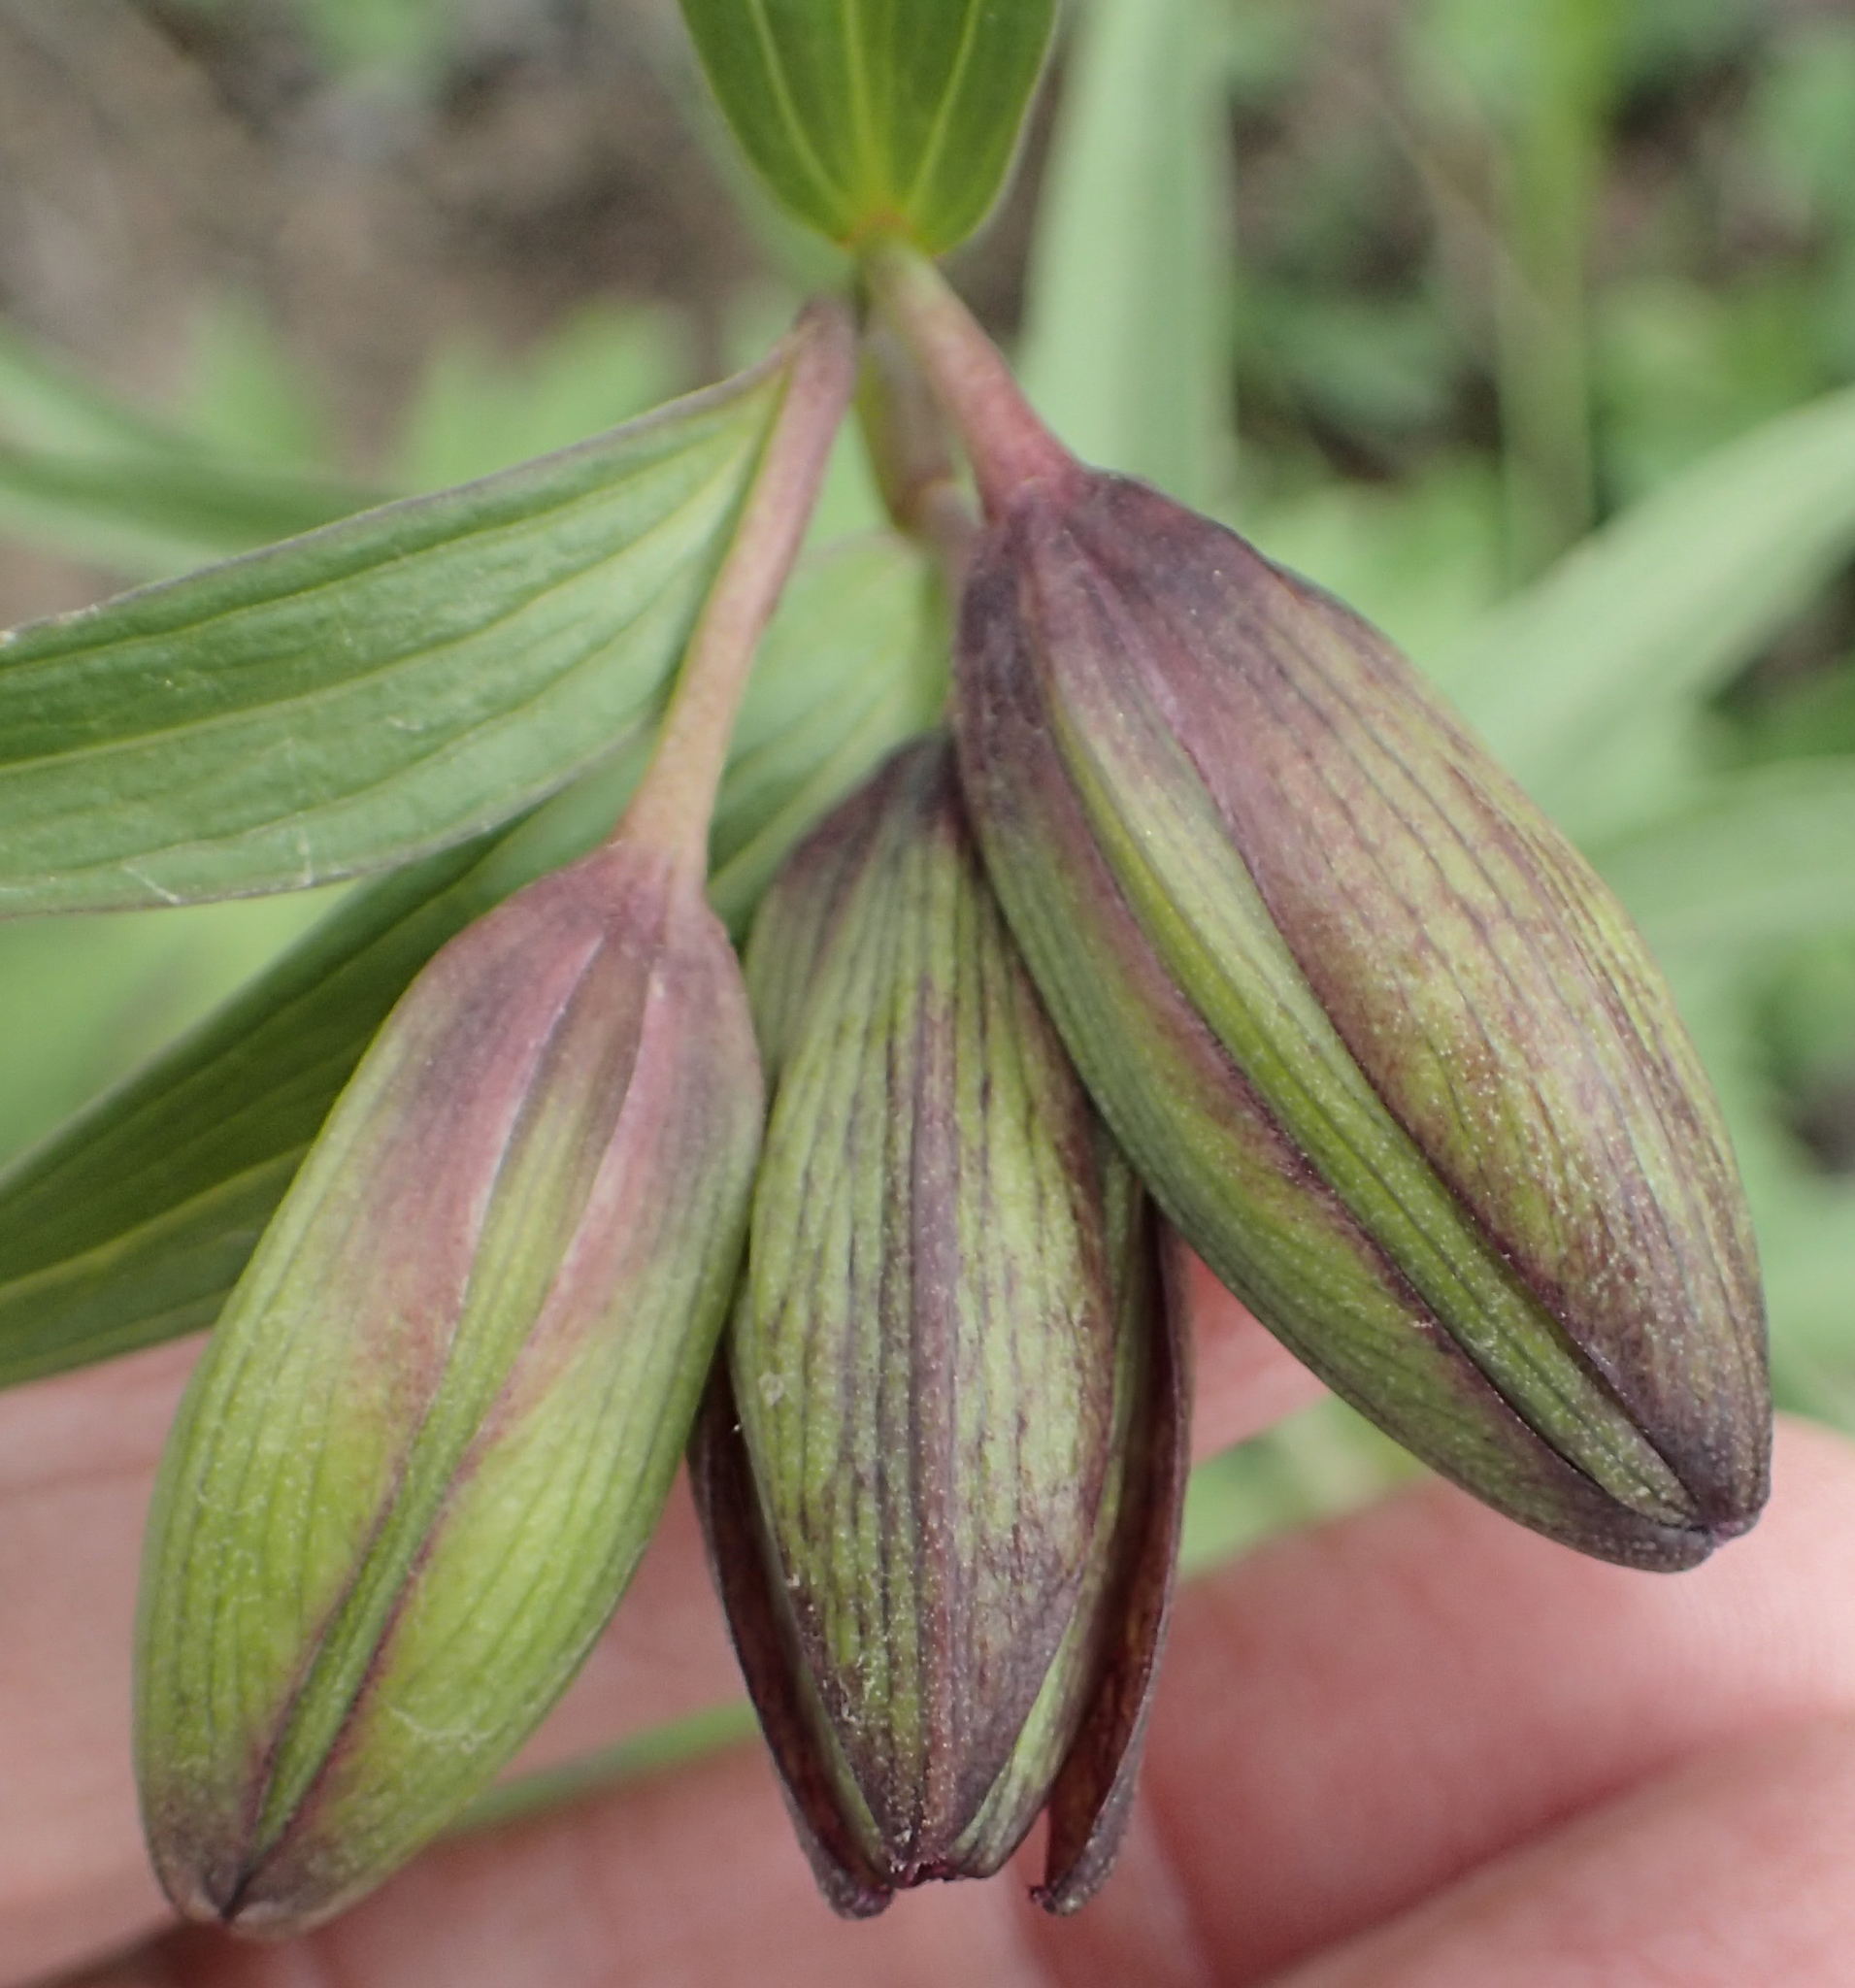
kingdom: Plantae
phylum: Tracheophyta
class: Liliopsida
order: Liliales
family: Liliaceae
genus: Fritillaria
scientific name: Fritillaria camschatcensis
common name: Kamchatka fritillary
